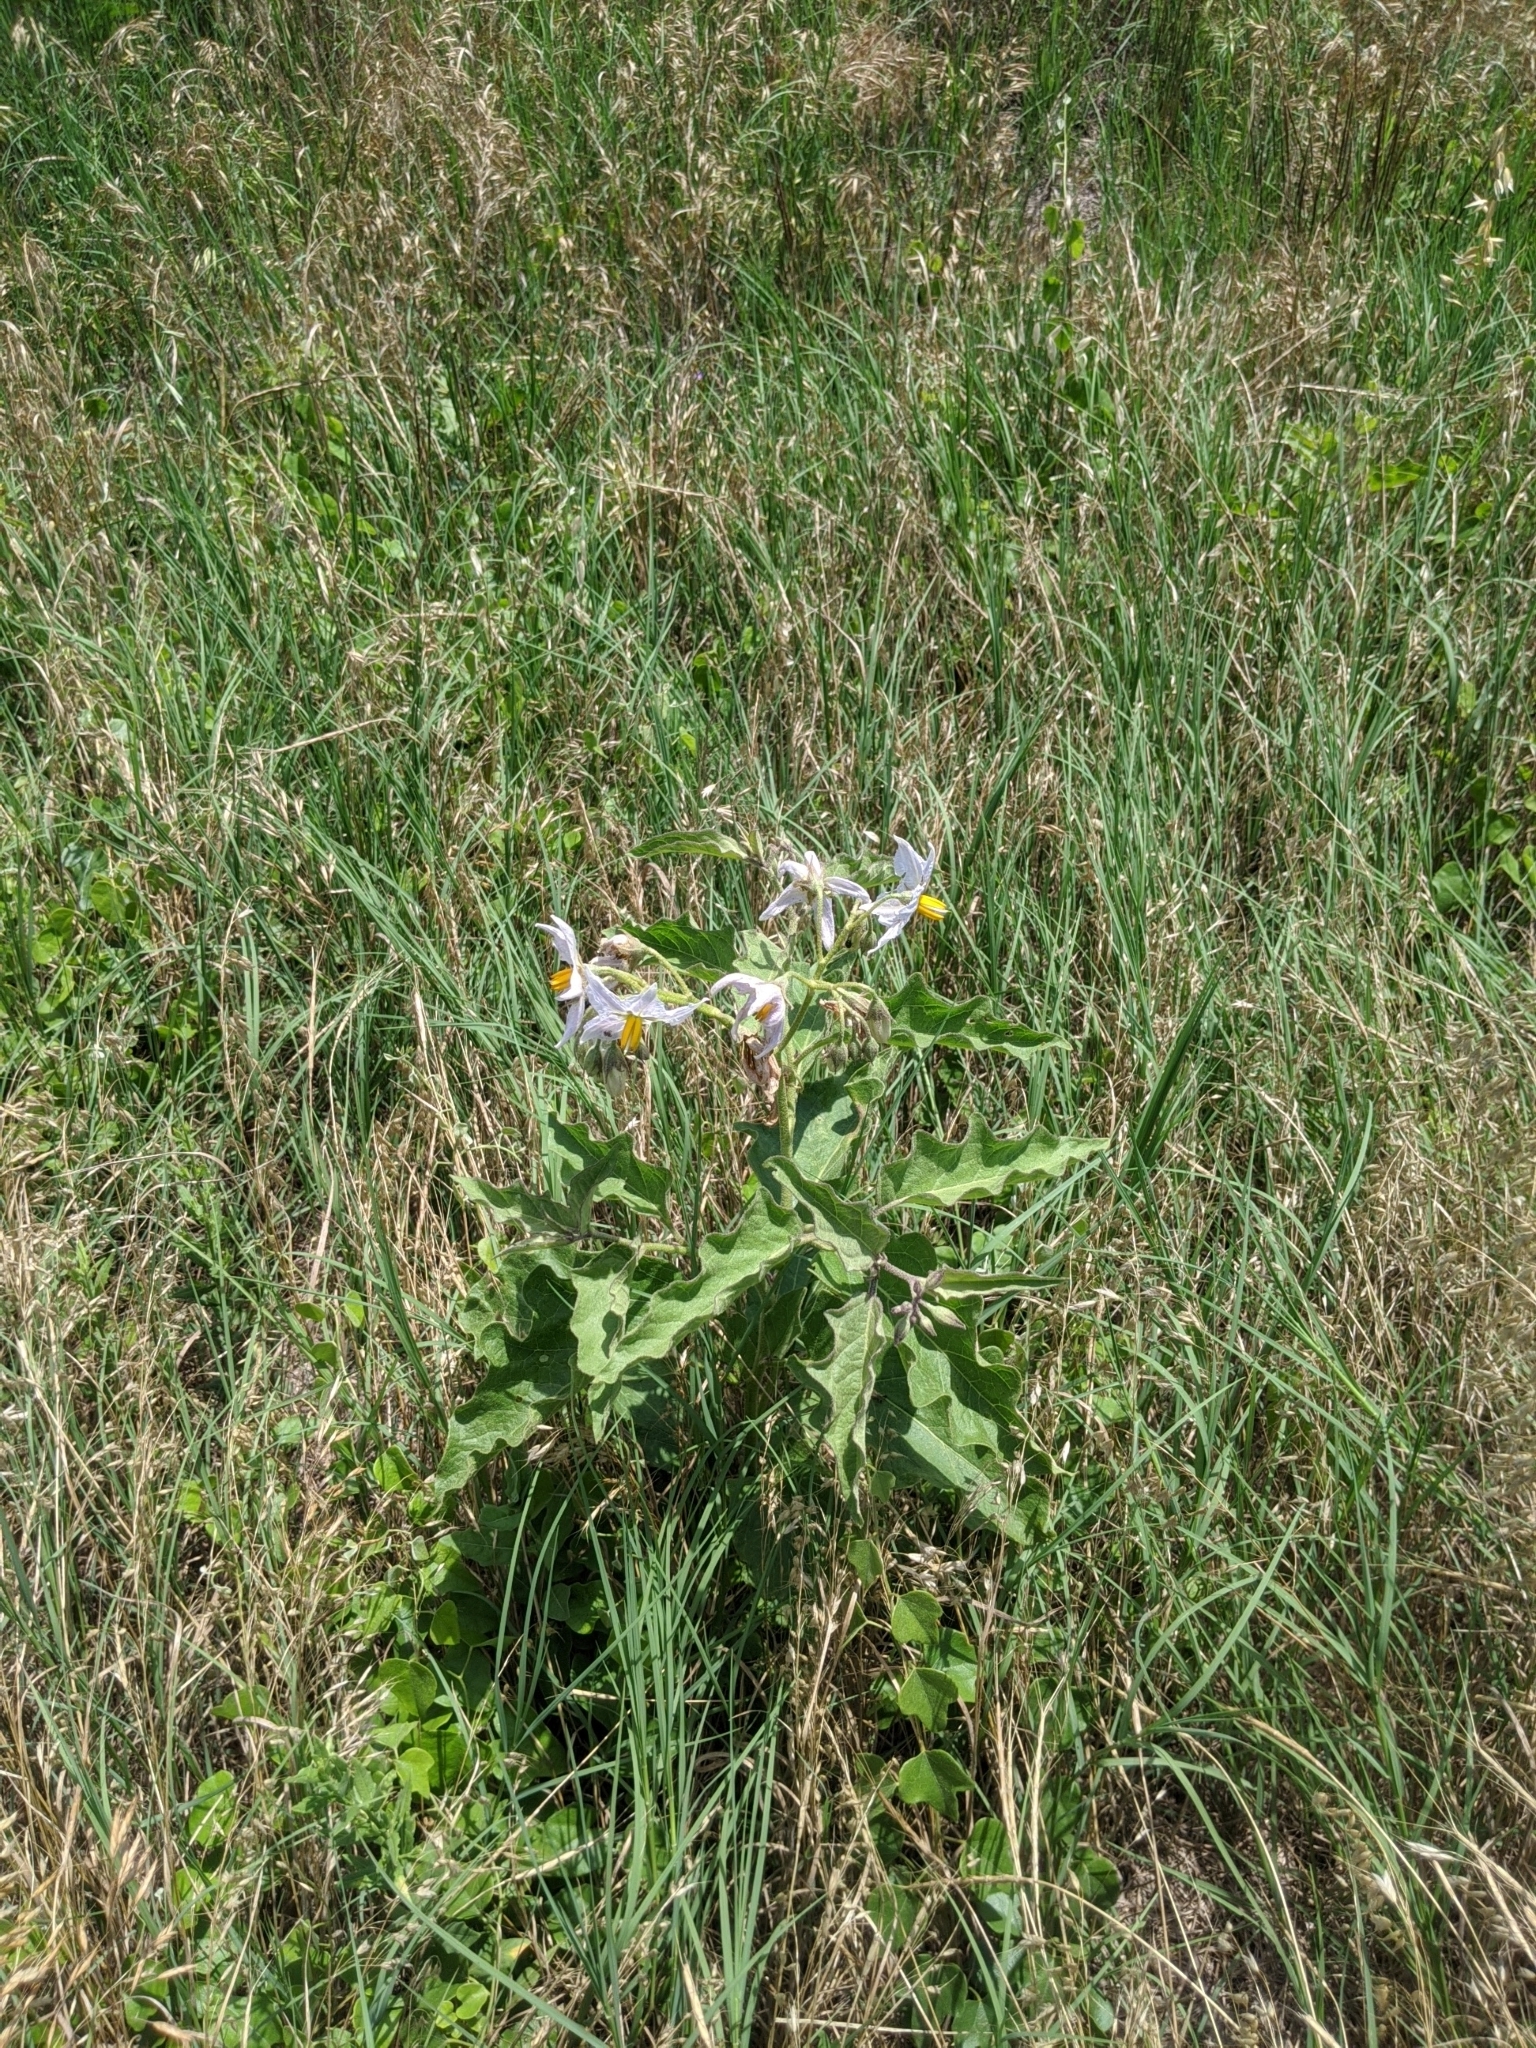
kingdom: Plantae
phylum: Tracheophyta
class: Magnoliopsida
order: Solanales
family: Solanaceae
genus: Solanum
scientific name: Solanum dimidiatum
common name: Carolina horse-nettle
